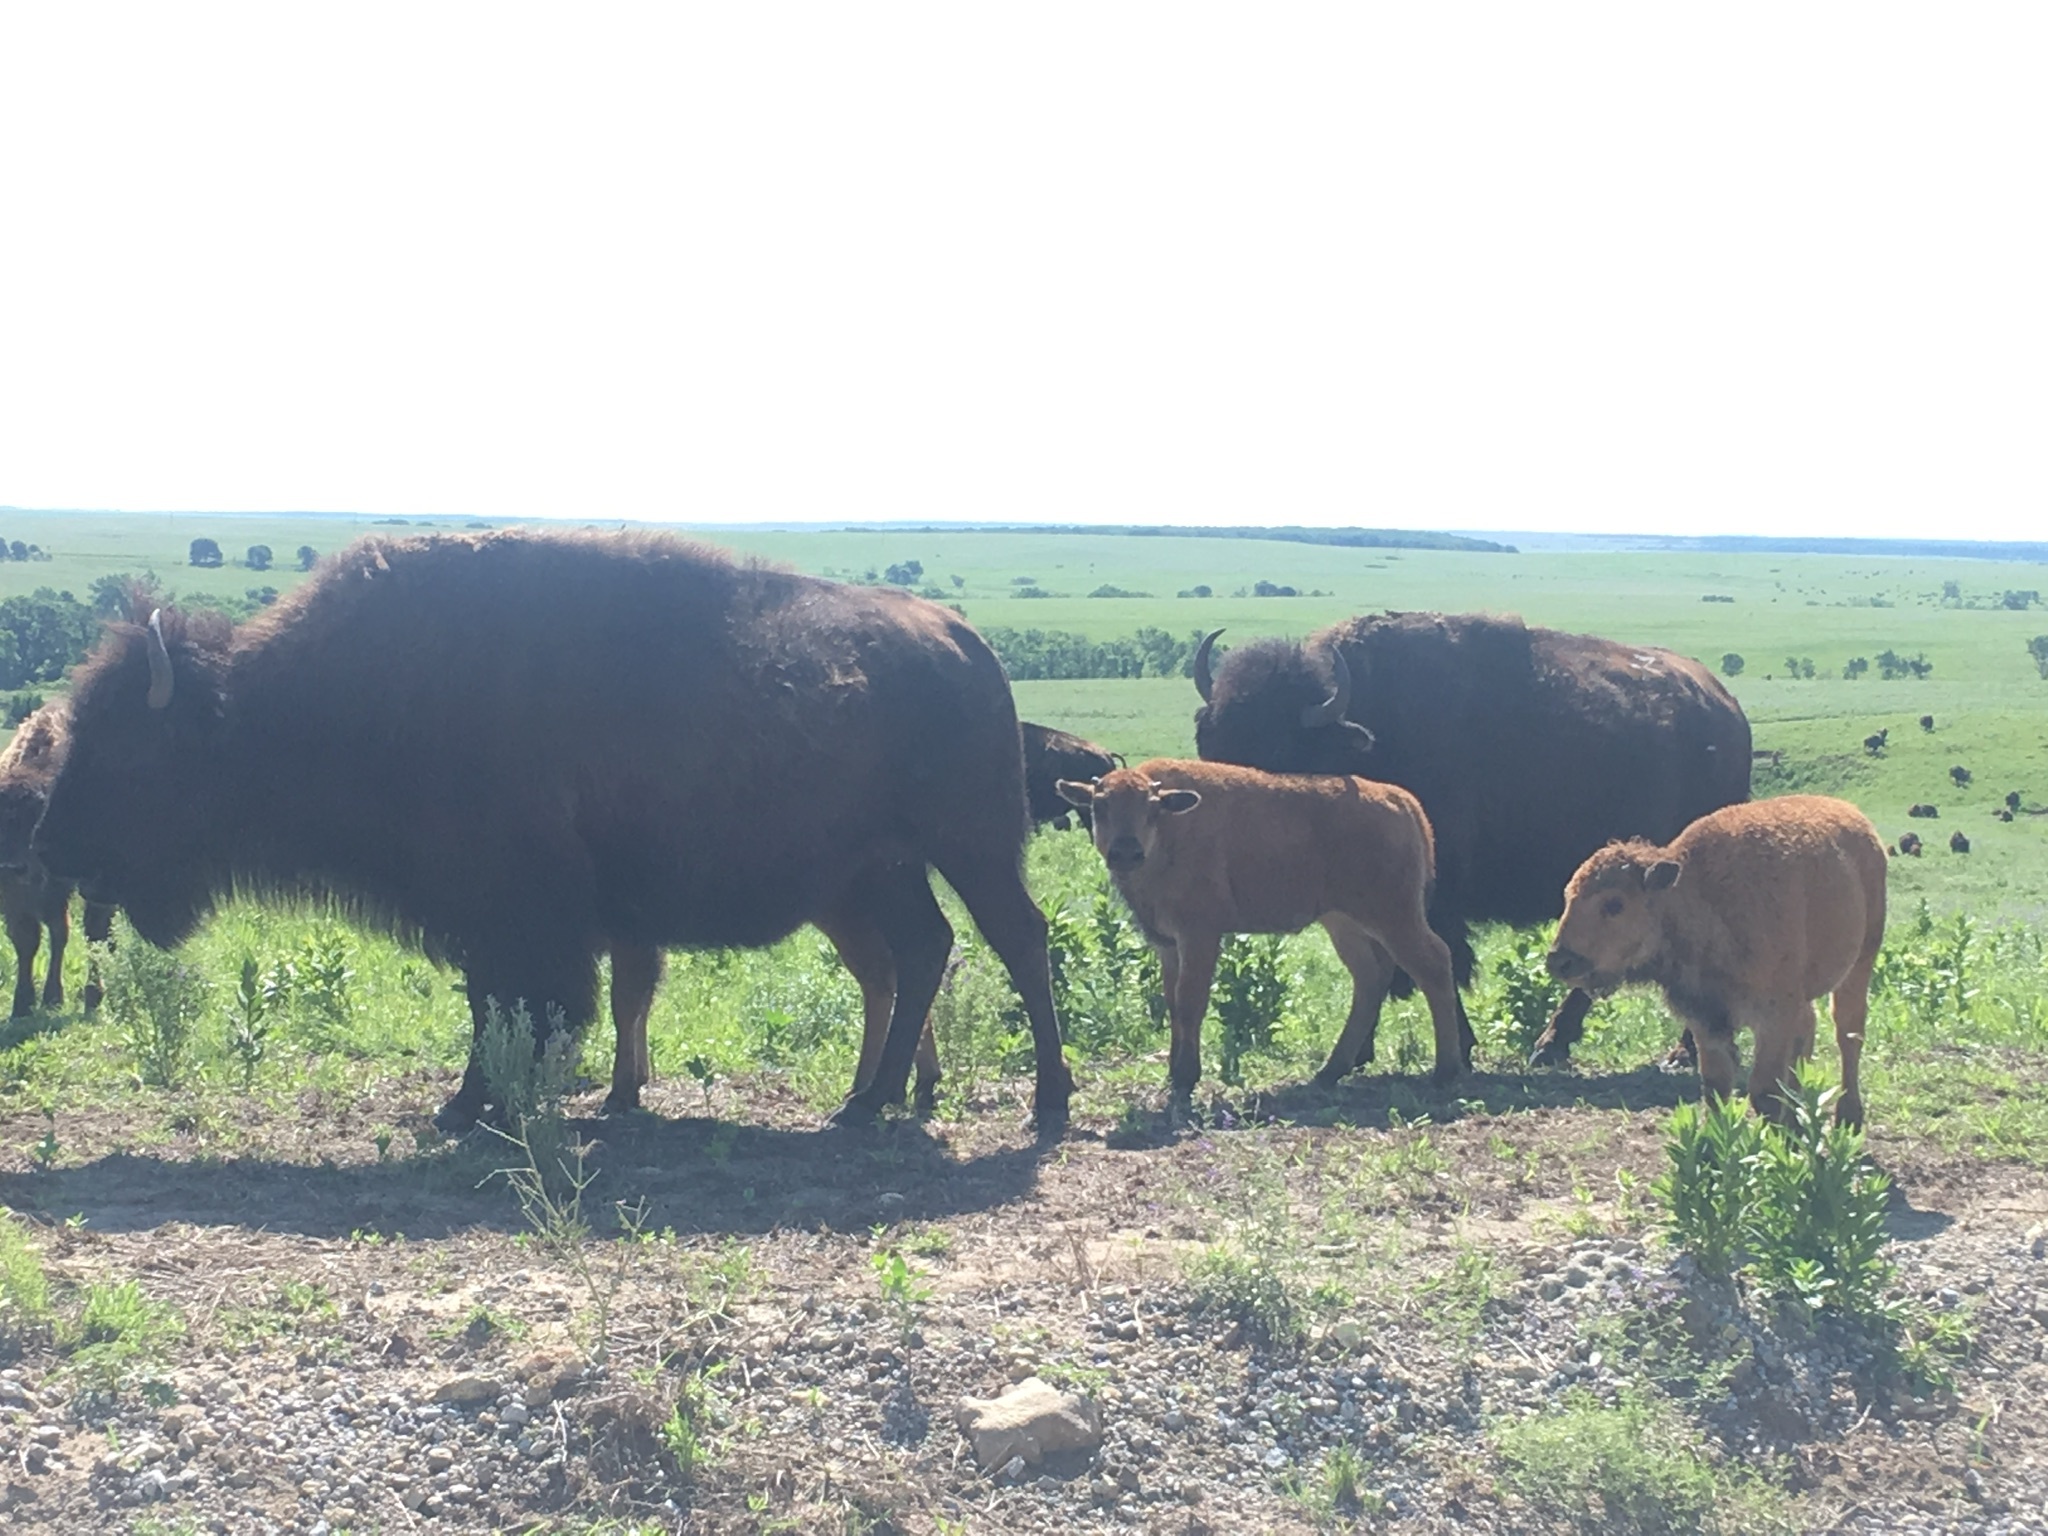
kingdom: Animalia
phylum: Chordata
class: Mammalia
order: Artiodactyla
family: Bovidae
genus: Bison
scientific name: Bison bison
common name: American bison
